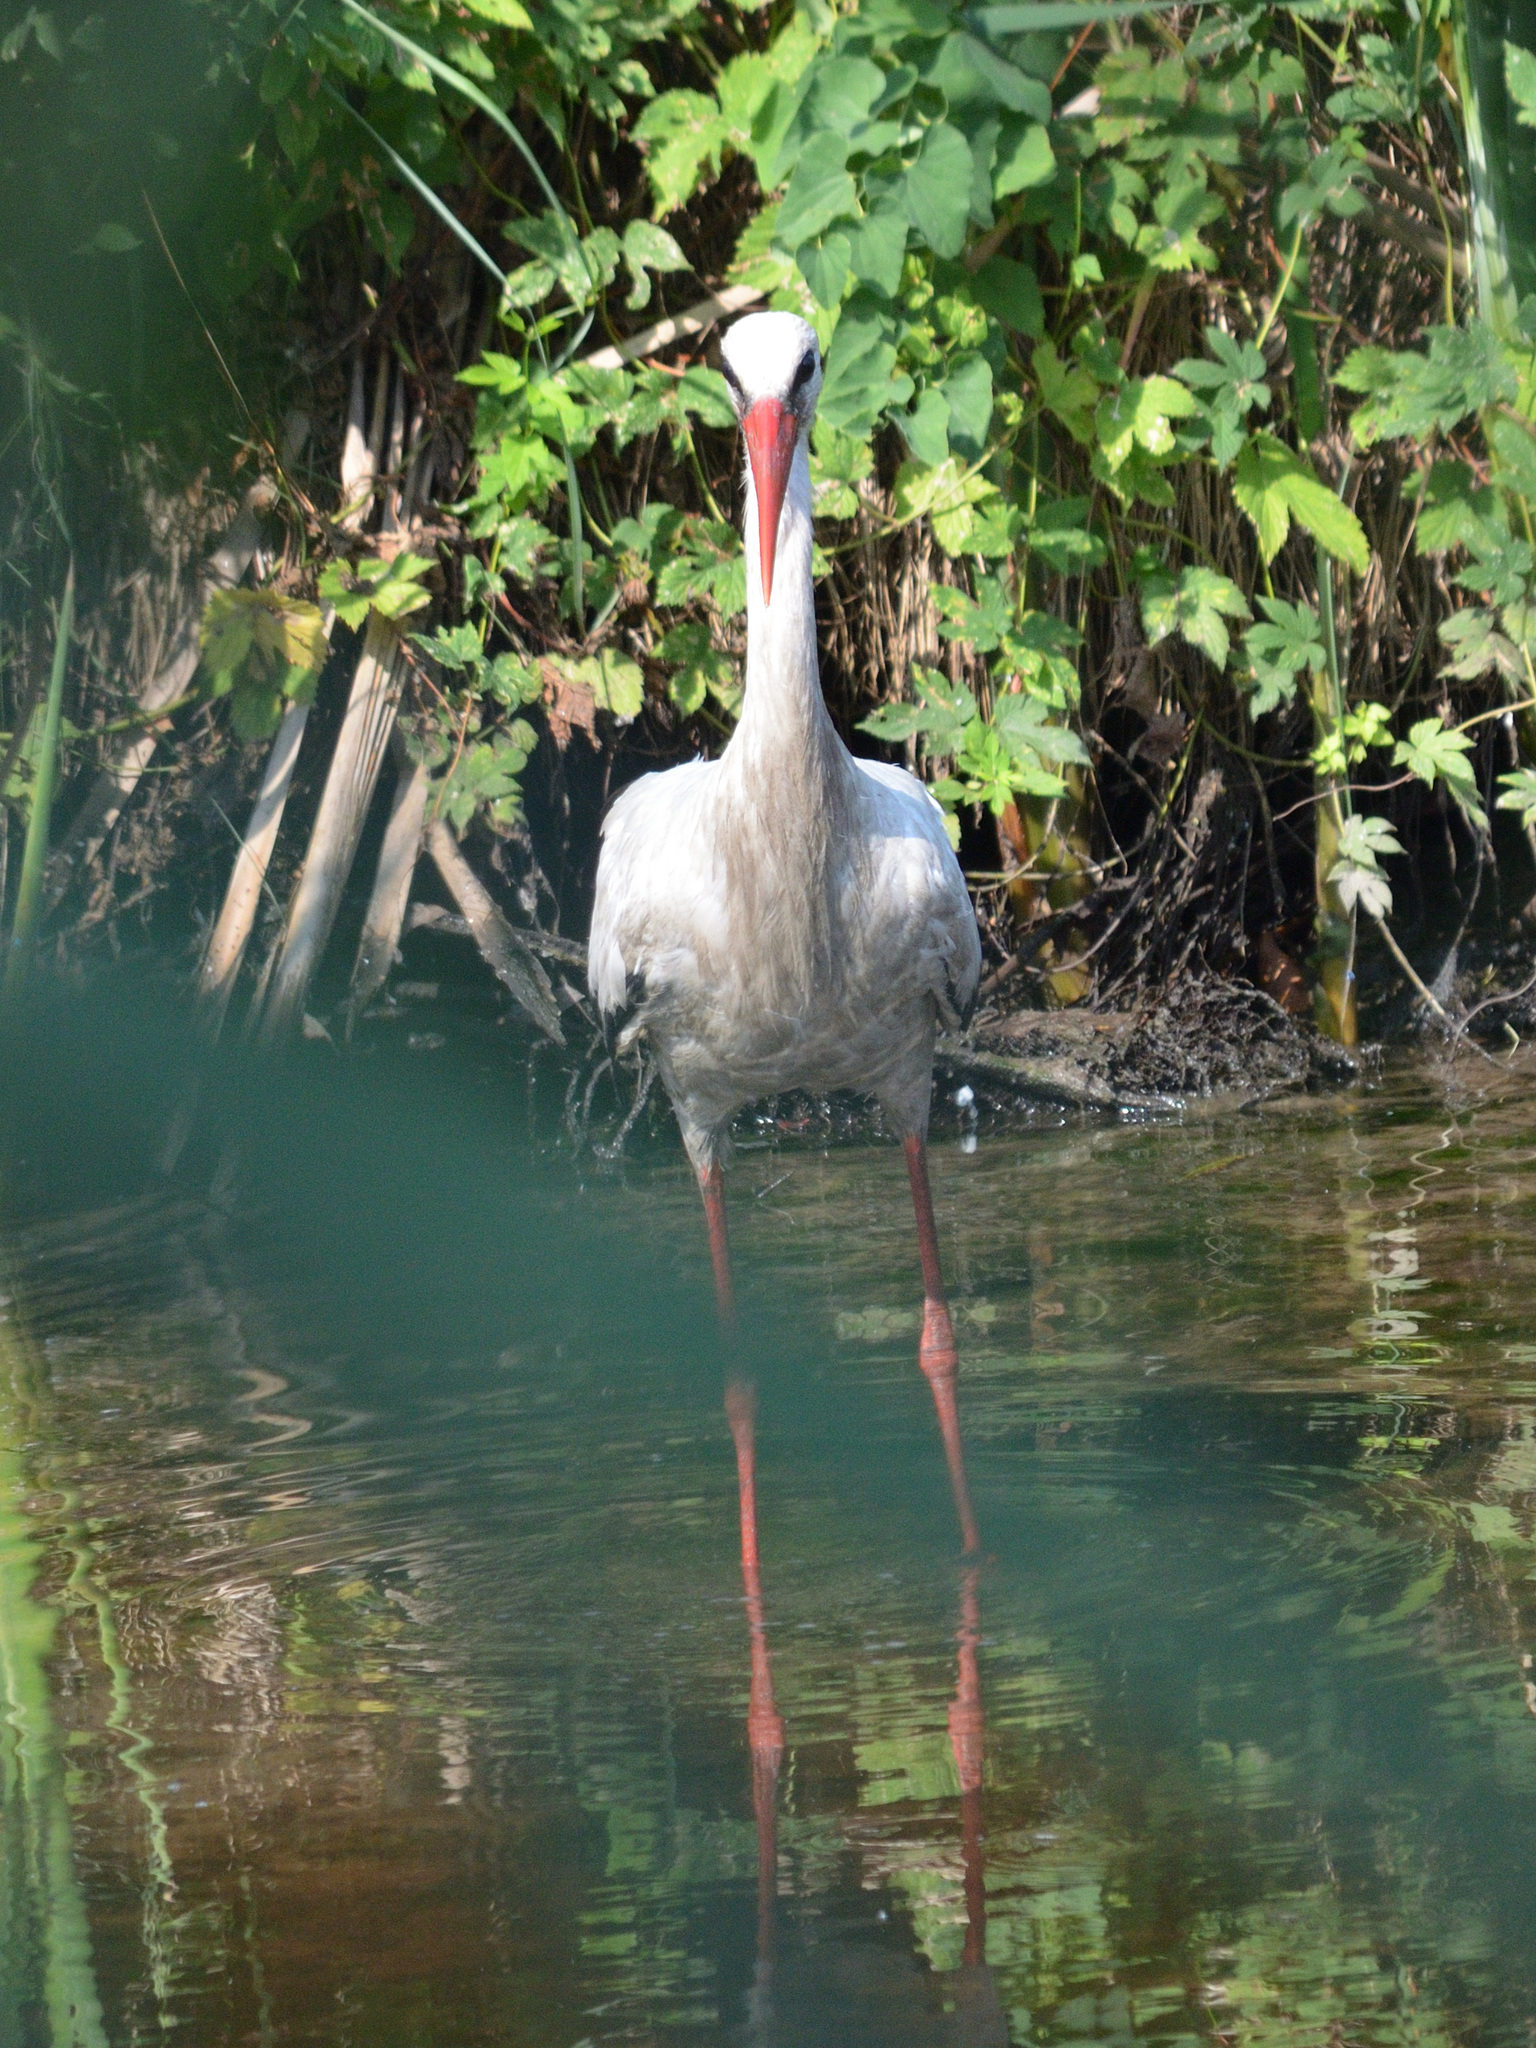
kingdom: Animalia
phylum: Chordata
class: Aves
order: Ciconiiformes
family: Ciconiidae
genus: Ciconia
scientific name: Ciconia ciconia
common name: White stork
